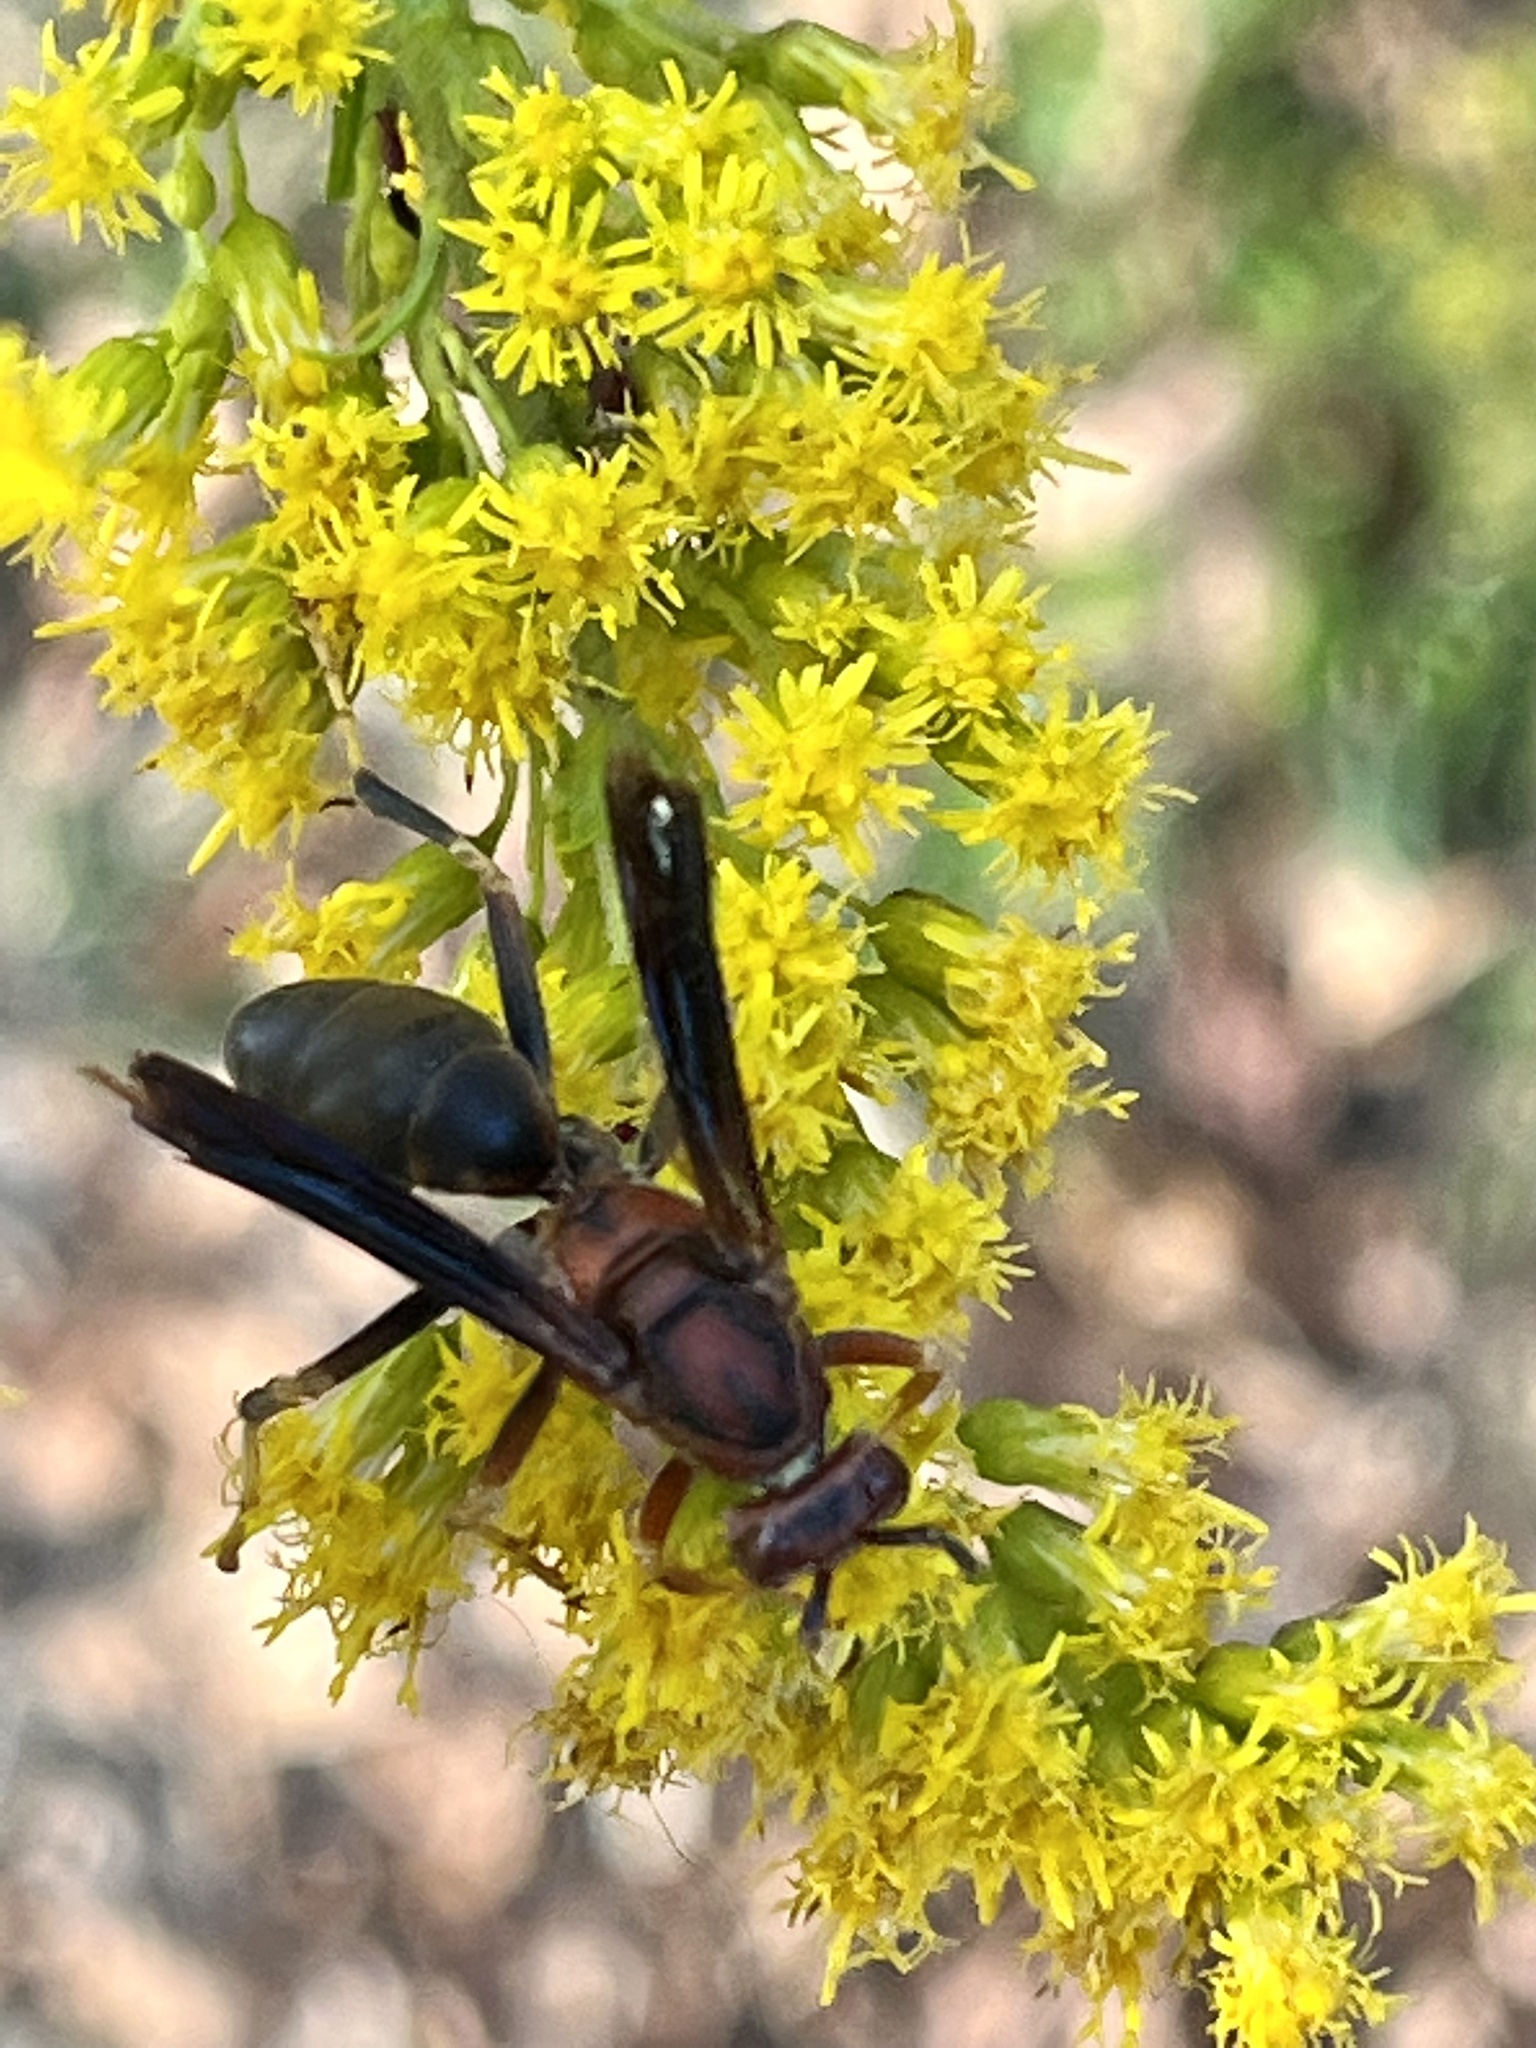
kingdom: Animalia
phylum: Arthropoda
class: Insecta
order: Hymenoptera
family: Eumenidae
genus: Polistes
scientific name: Polistes metricus
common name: Metric paper wasp
